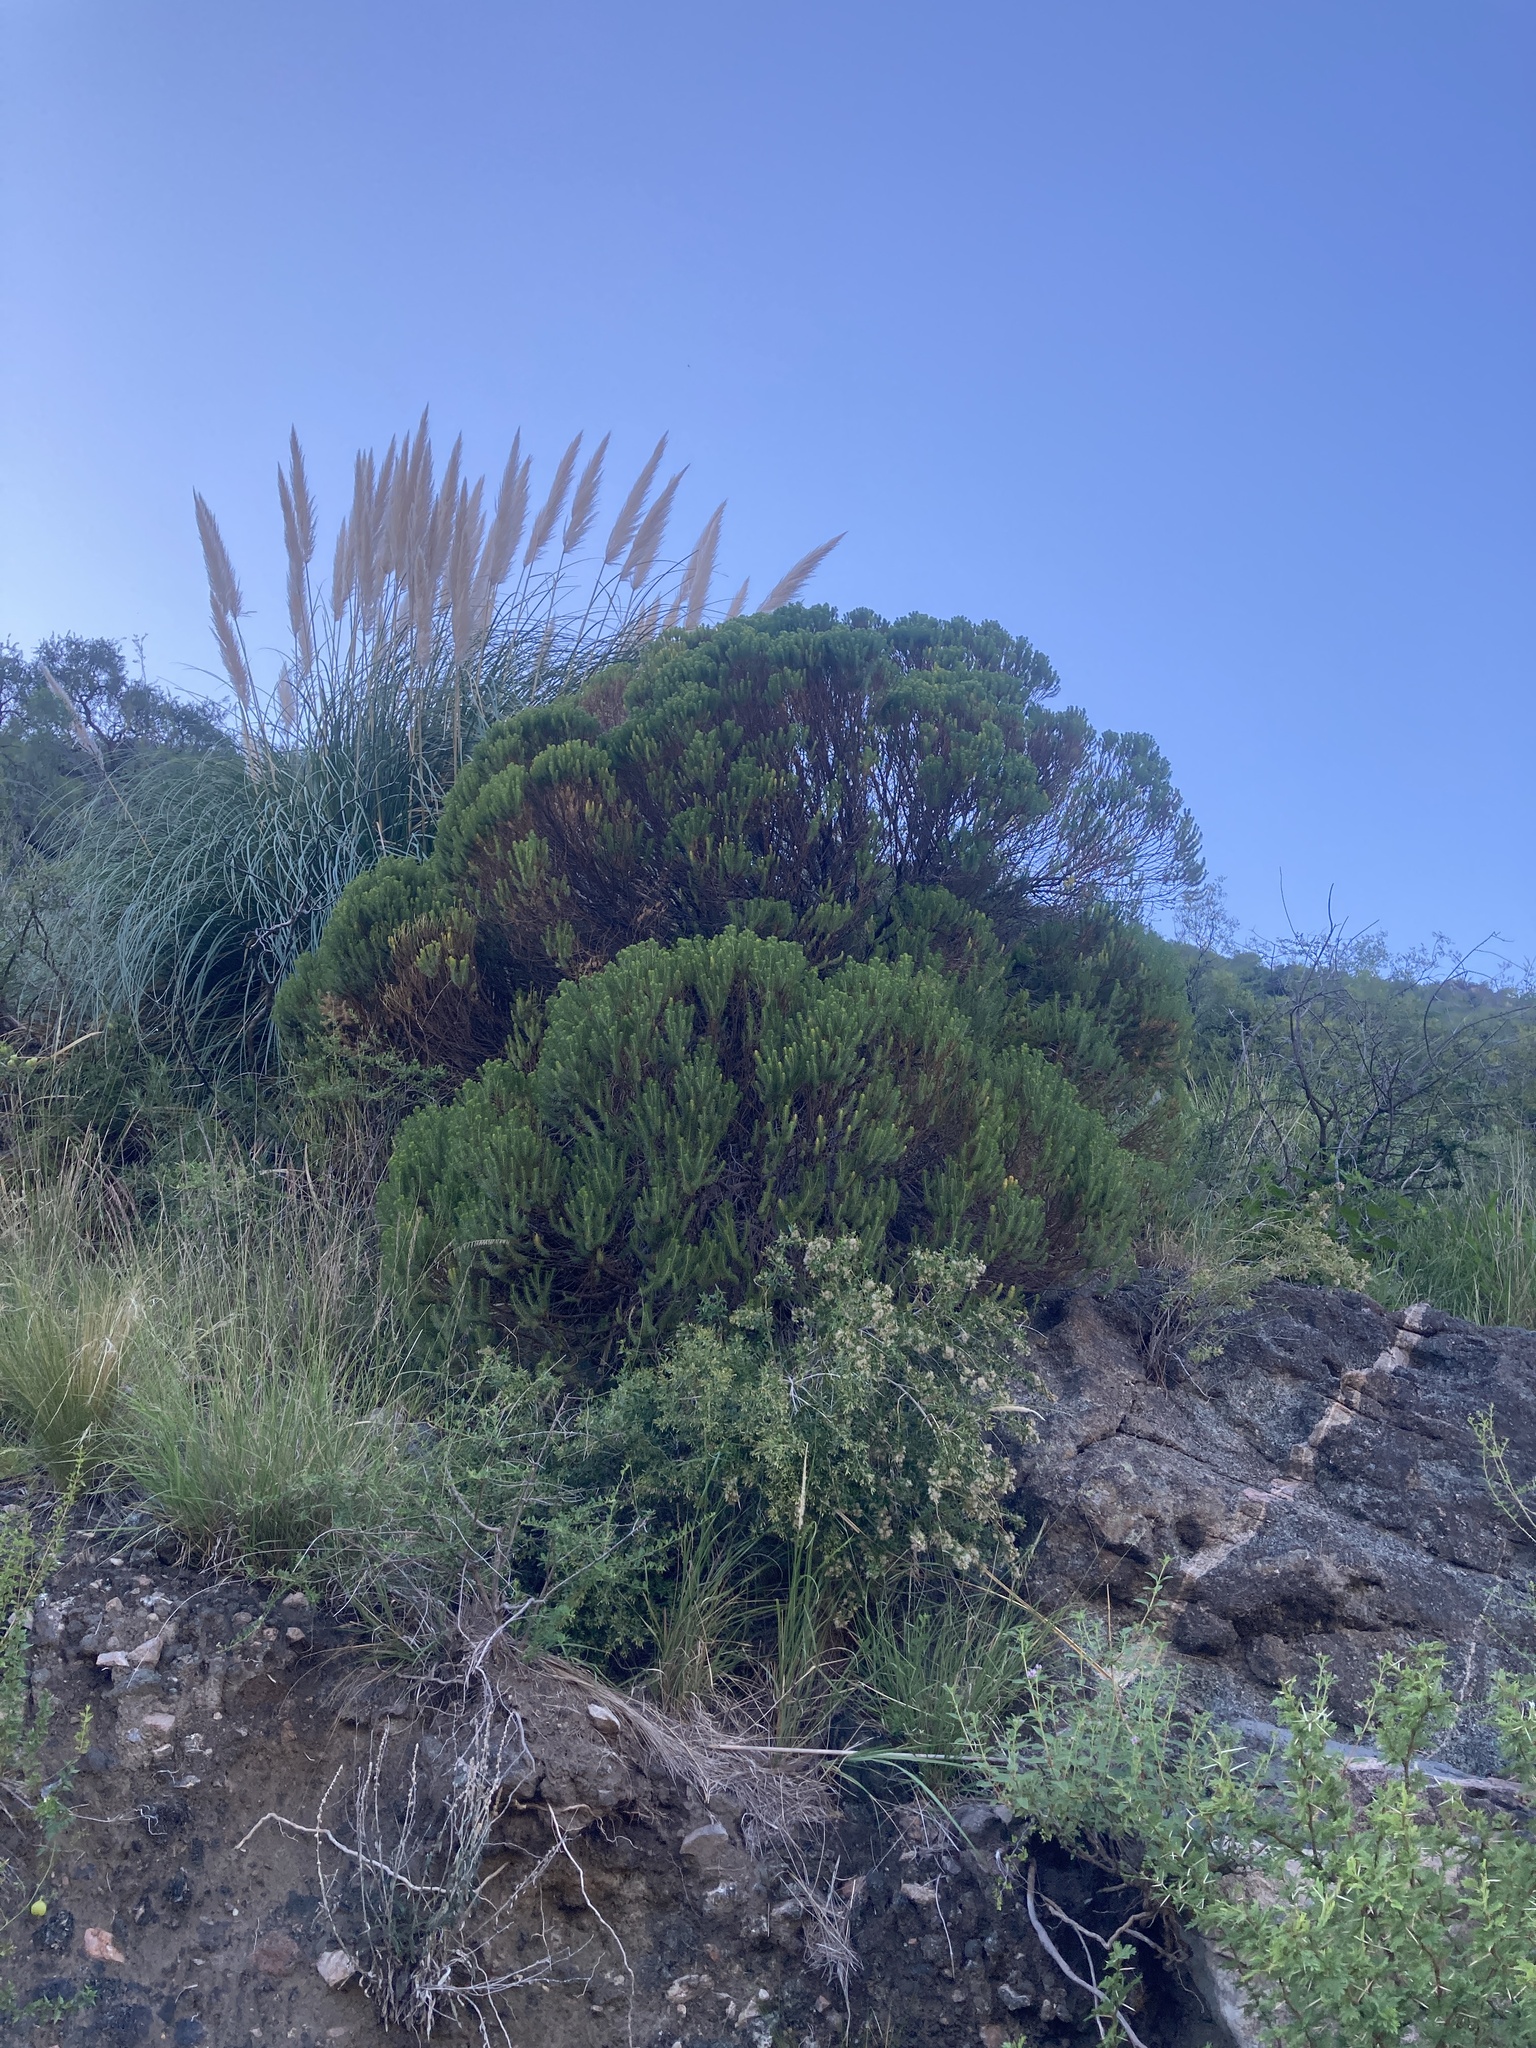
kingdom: Plantae
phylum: Tracheophyta
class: Magnoliopsida
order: Asterales
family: Asteraceae
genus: Baccharis
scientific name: Baccharis aliena
